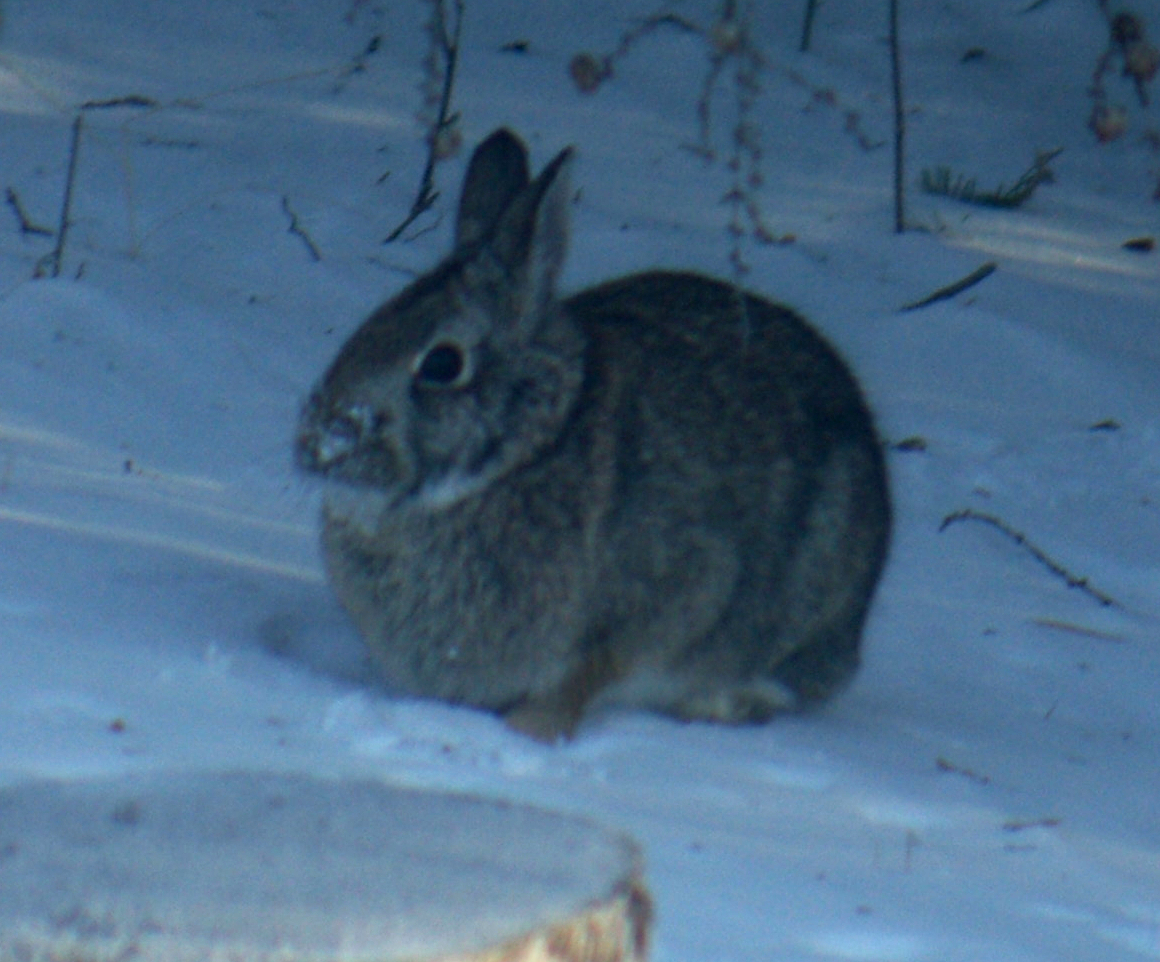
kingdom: Animalia
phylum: Chordata
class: Mammalia
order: Lagomorpha
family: Leporidae
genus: Sylvilagus
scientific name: Sylvilagus floridanus
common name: Eastern cottontail
